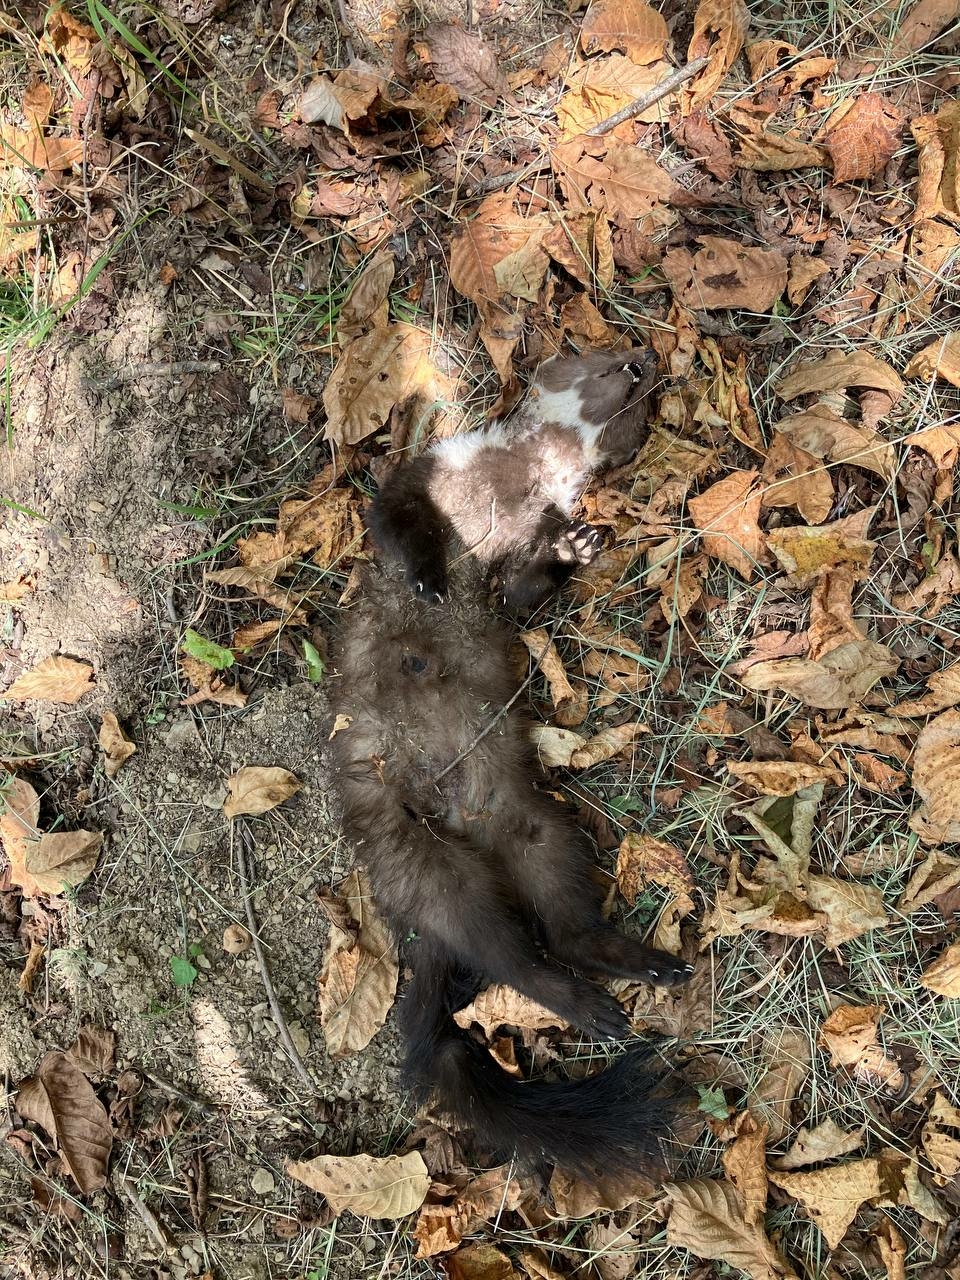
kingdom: Animalia
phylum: Chordata
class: Mammalia
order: Carnivora
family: Mustelidae
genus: Martes
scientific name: Martes foina
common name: Beech marten
